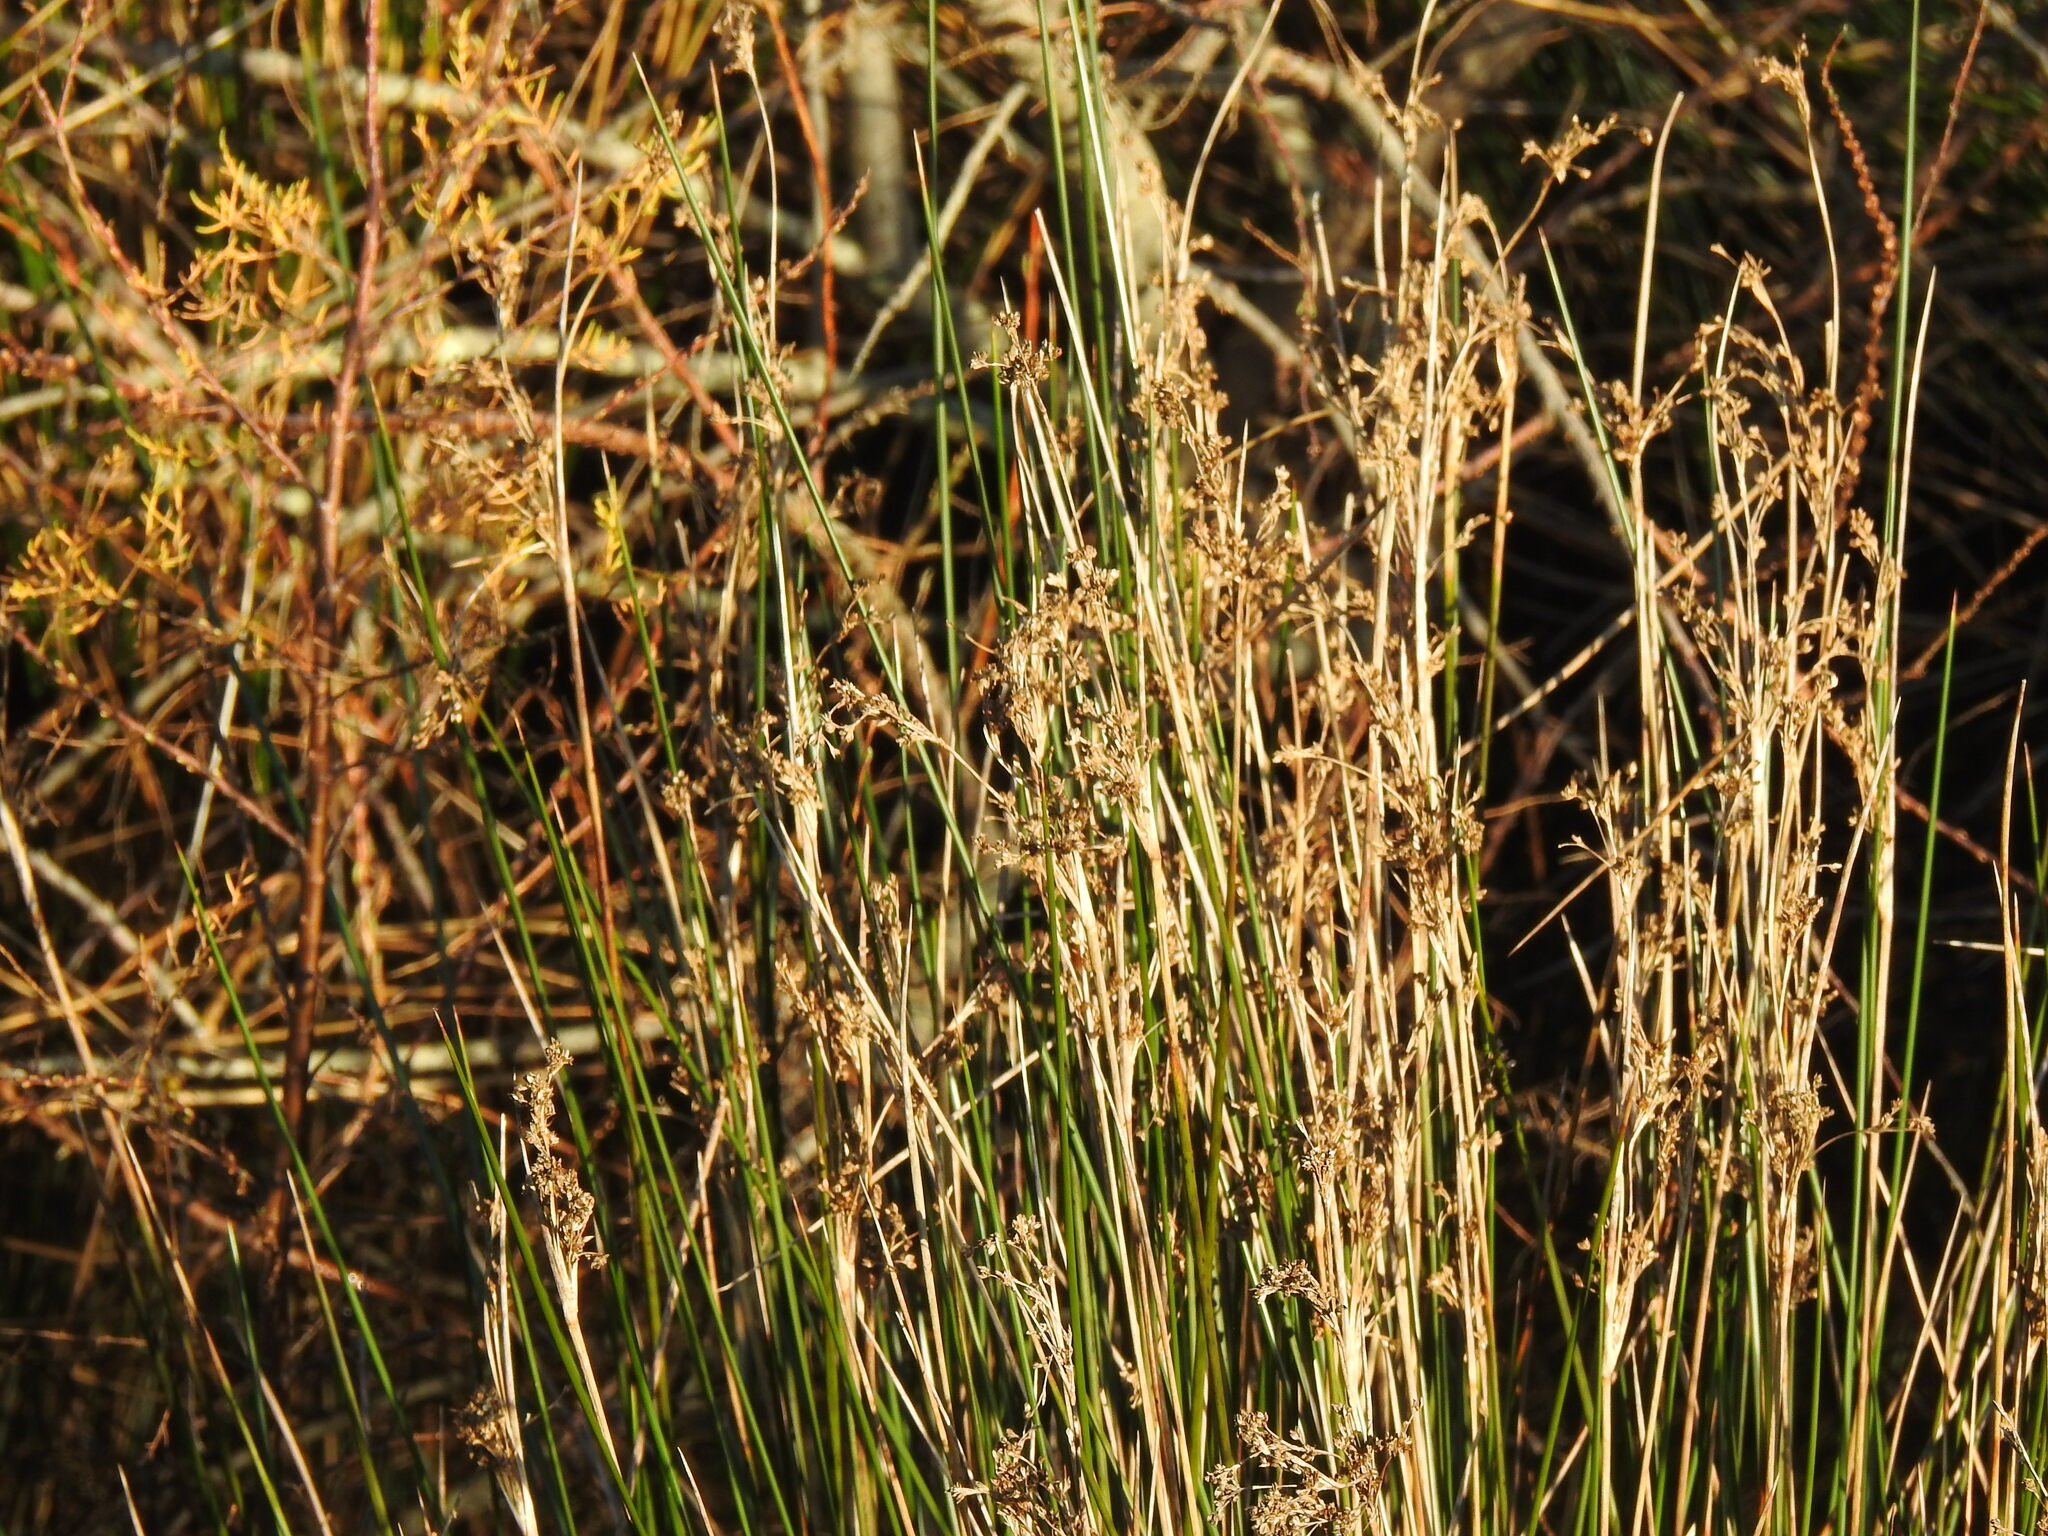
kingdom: Plantae
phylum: Tracheophyta
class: Liliopsida
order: Poales
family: Juncaceae
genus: Juncus
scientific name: Juncus maritimus
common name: Sea rush
